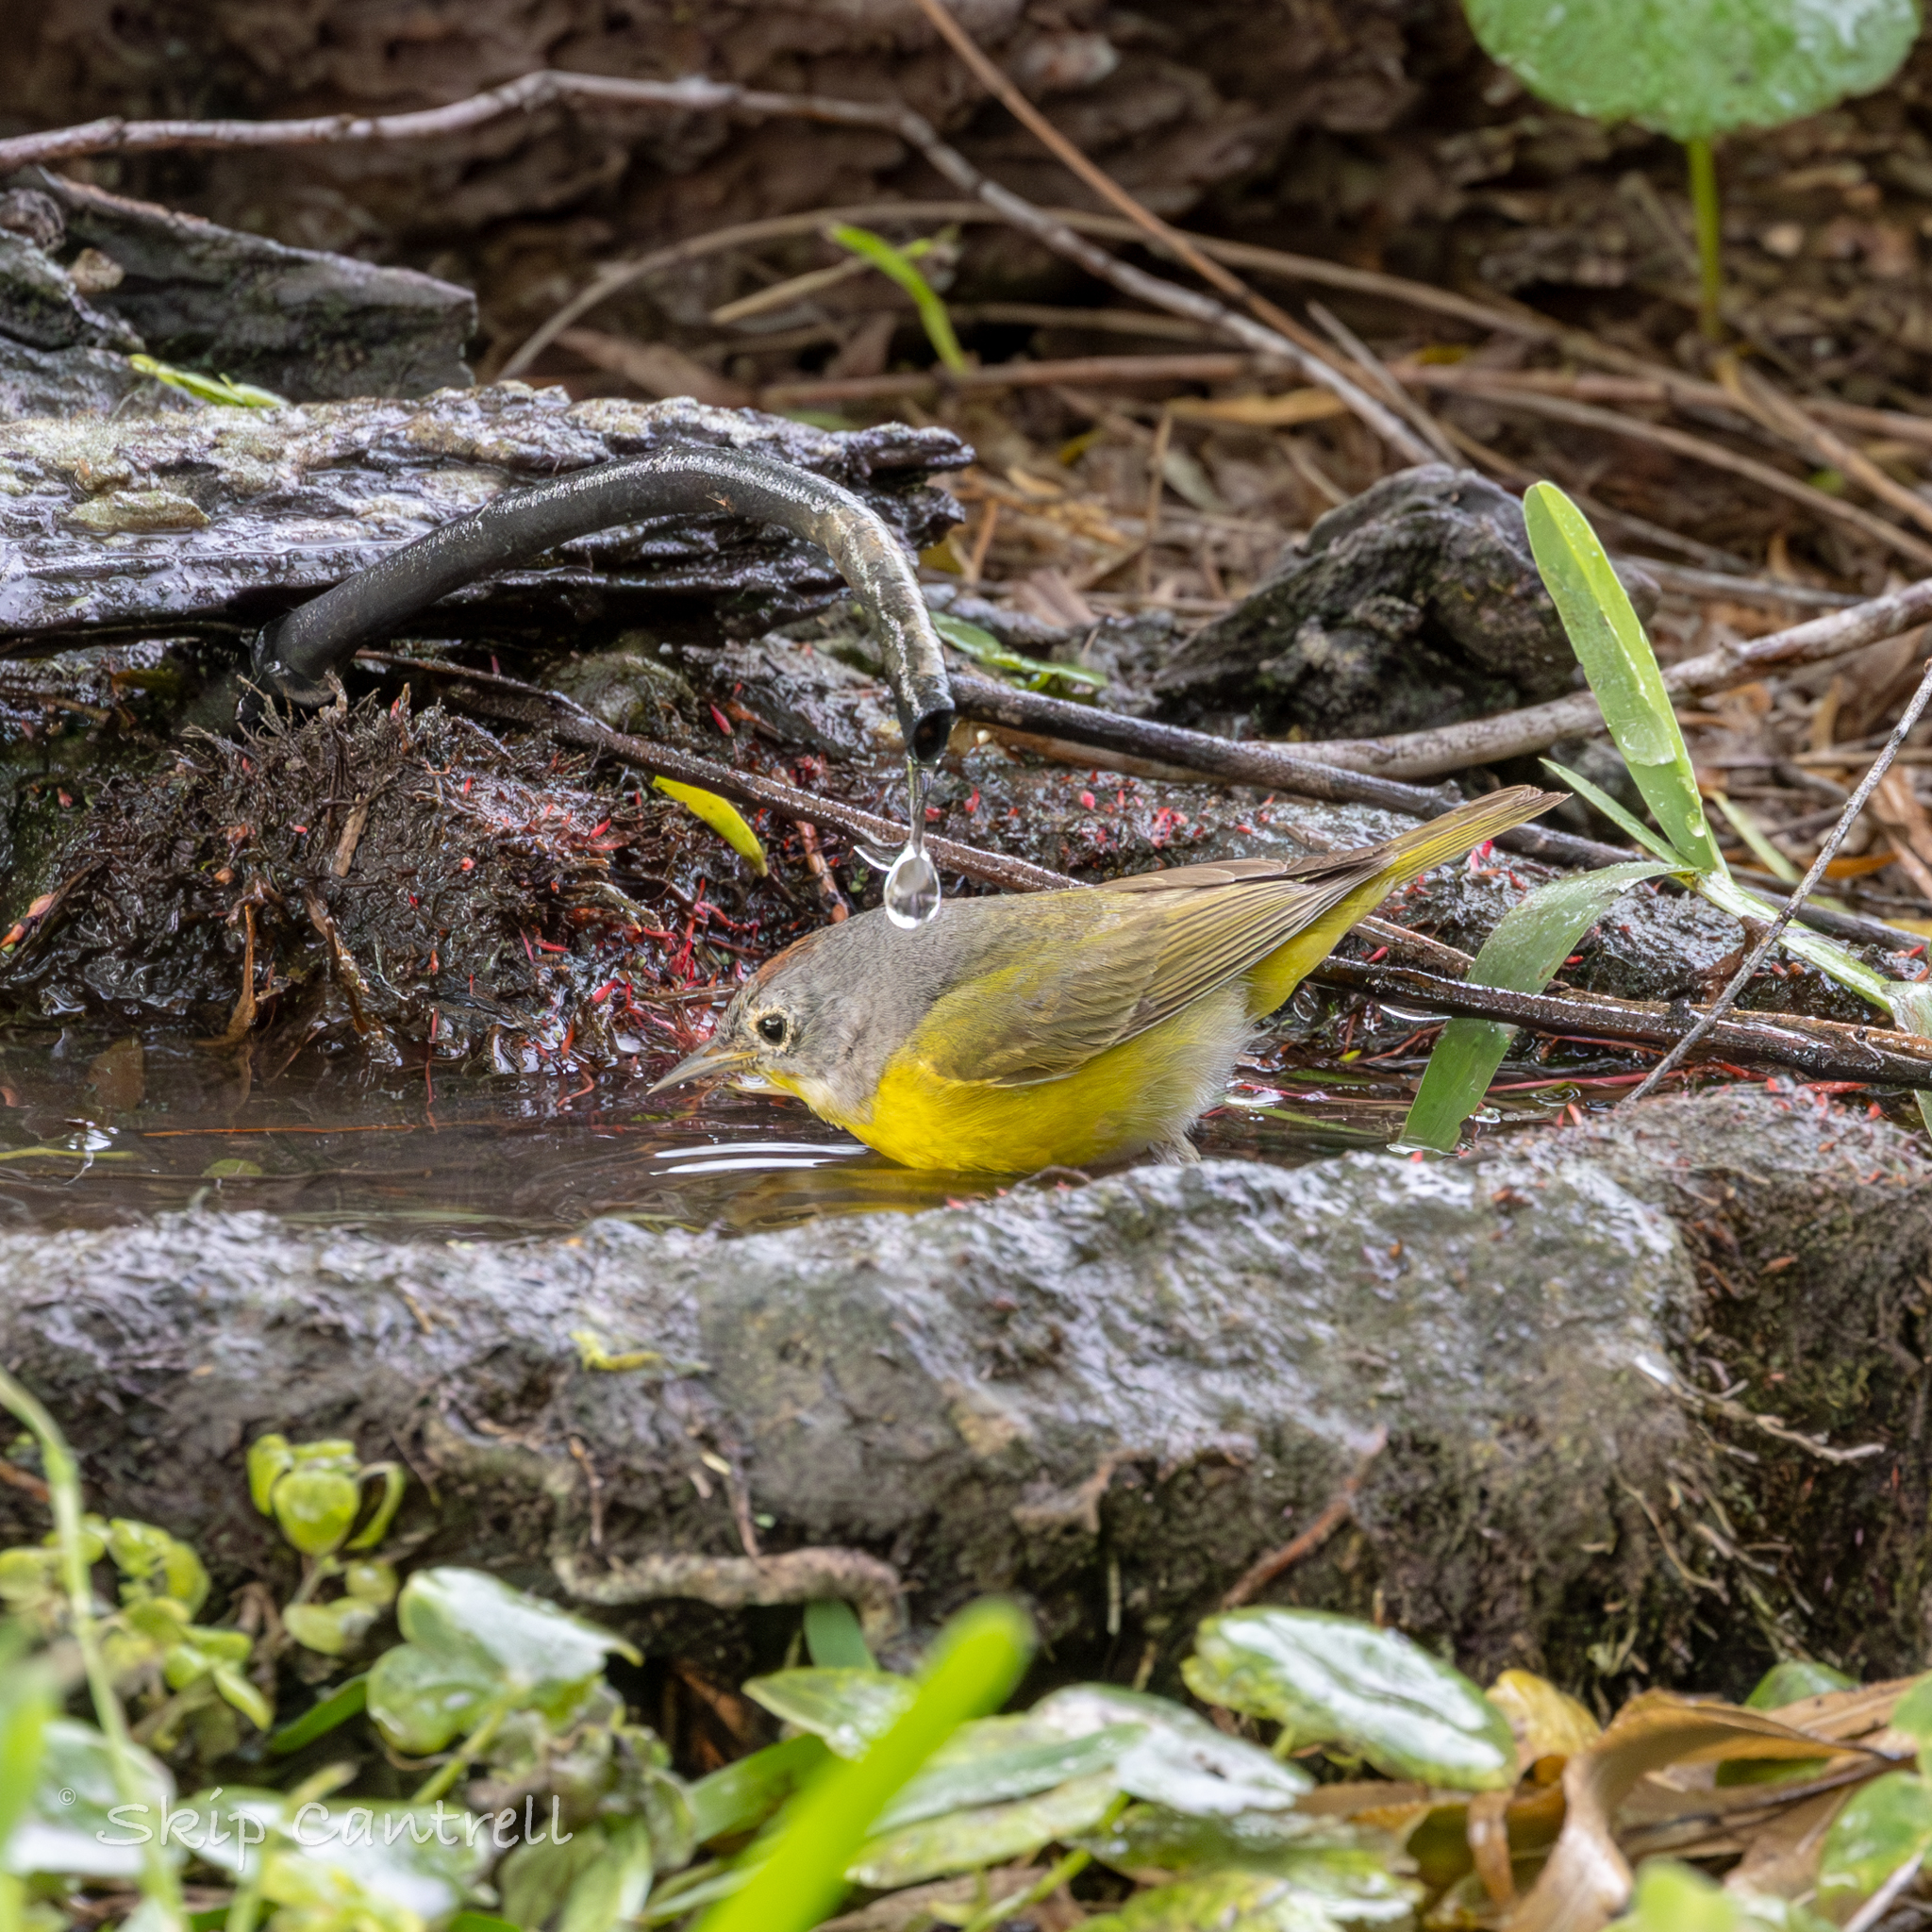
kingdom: Animalia
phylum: Chordata
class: Aves
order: Passeriformes
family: Parulidae
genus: Leiothlypis
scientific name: Leiothlypis ruficapilla
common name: Nashville warbler
